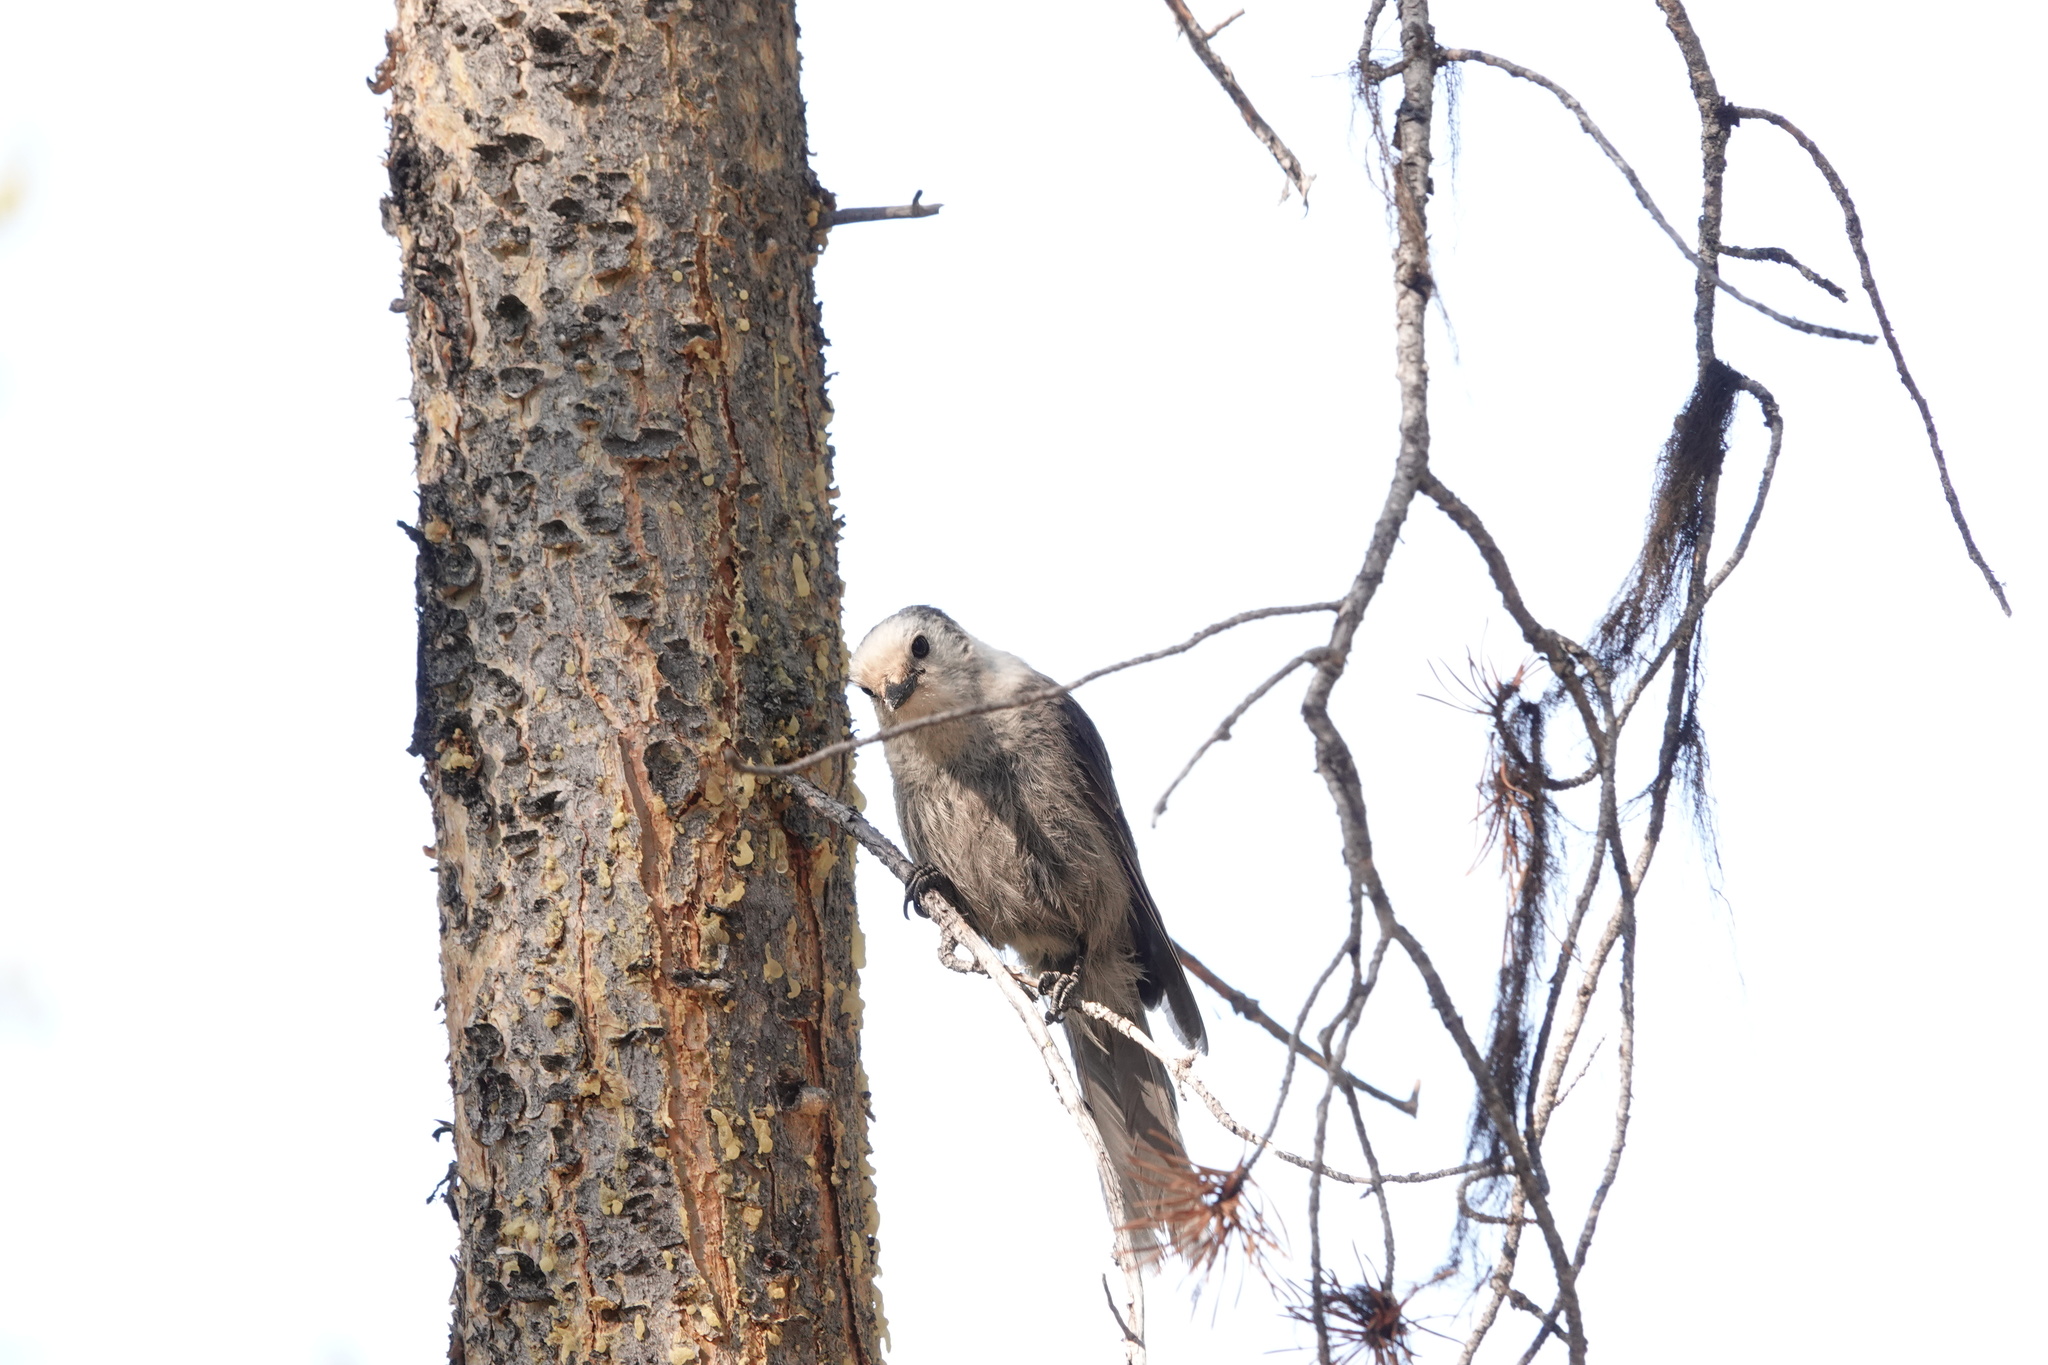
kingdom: Animalia
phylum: Chordata
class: Aves
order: Passeriformes
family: Corvidae
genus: Perisoreus
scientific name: Perisoreus canadensis
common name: Gray jay
